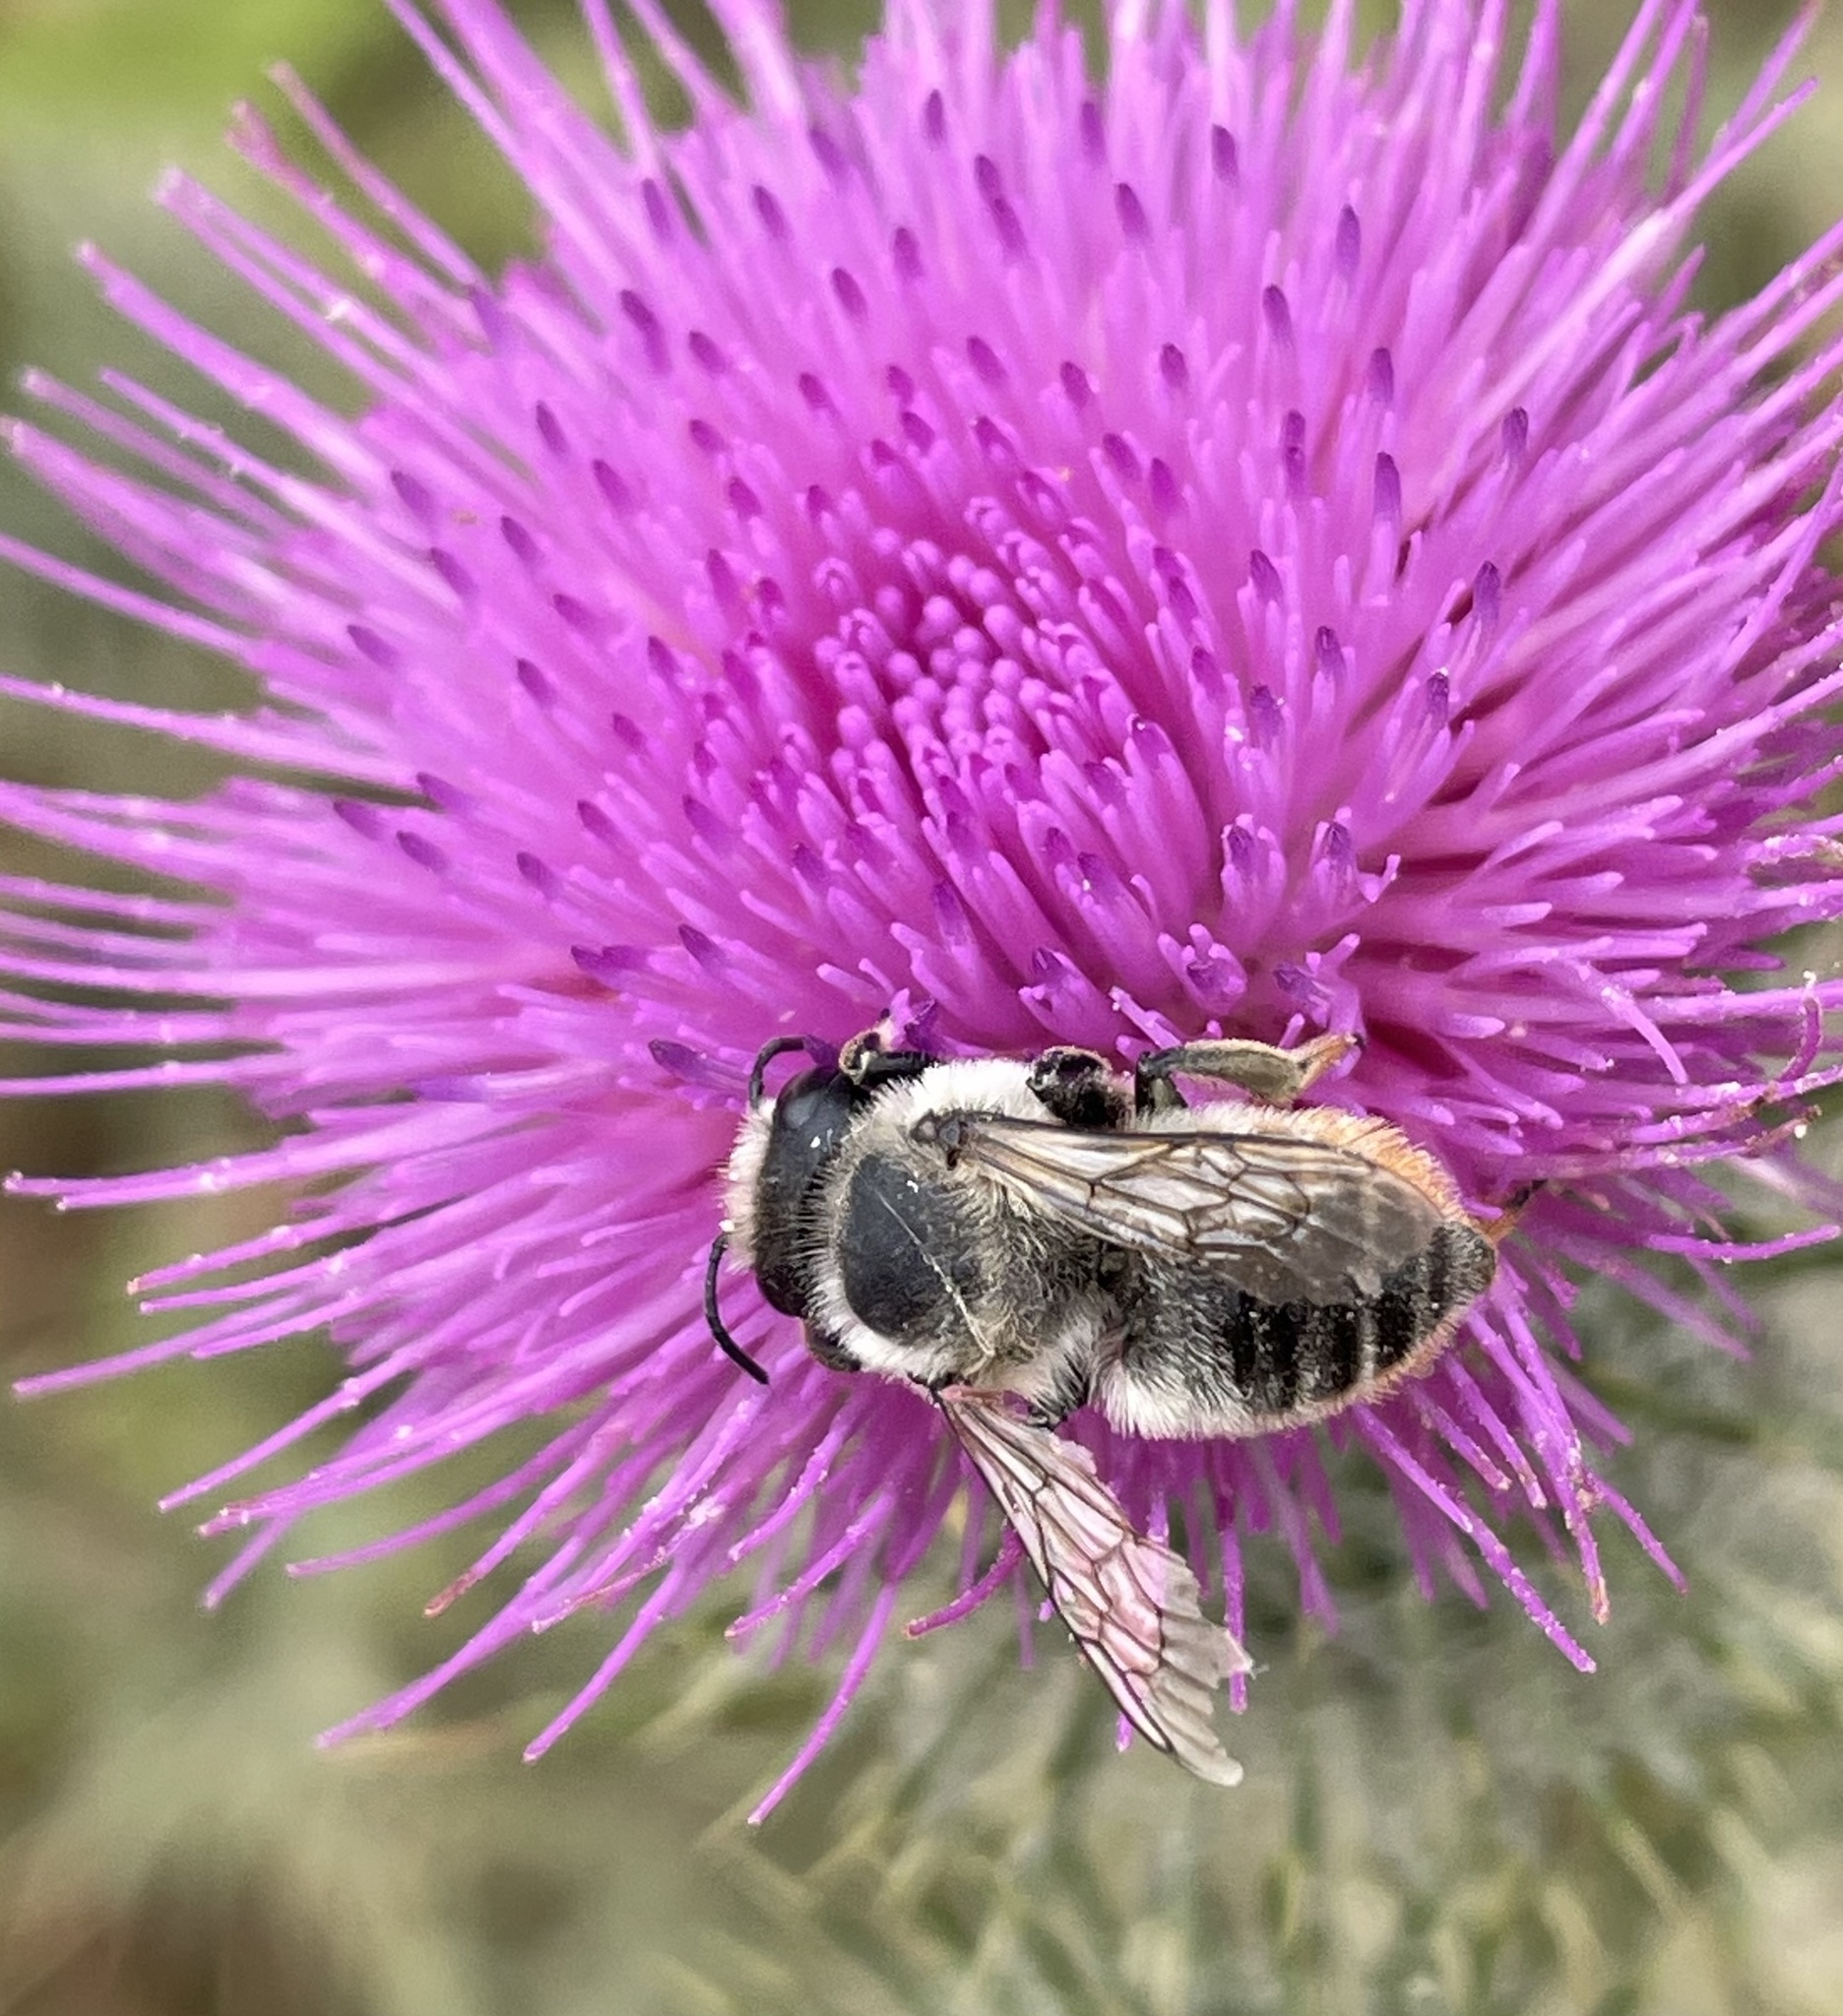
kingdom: Animalia
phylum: Arthropoda
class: Insecta
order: Hymenoptera
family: Megachilidae
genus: Megachile
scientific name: Megachile perihirta
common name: Western leafcutter
